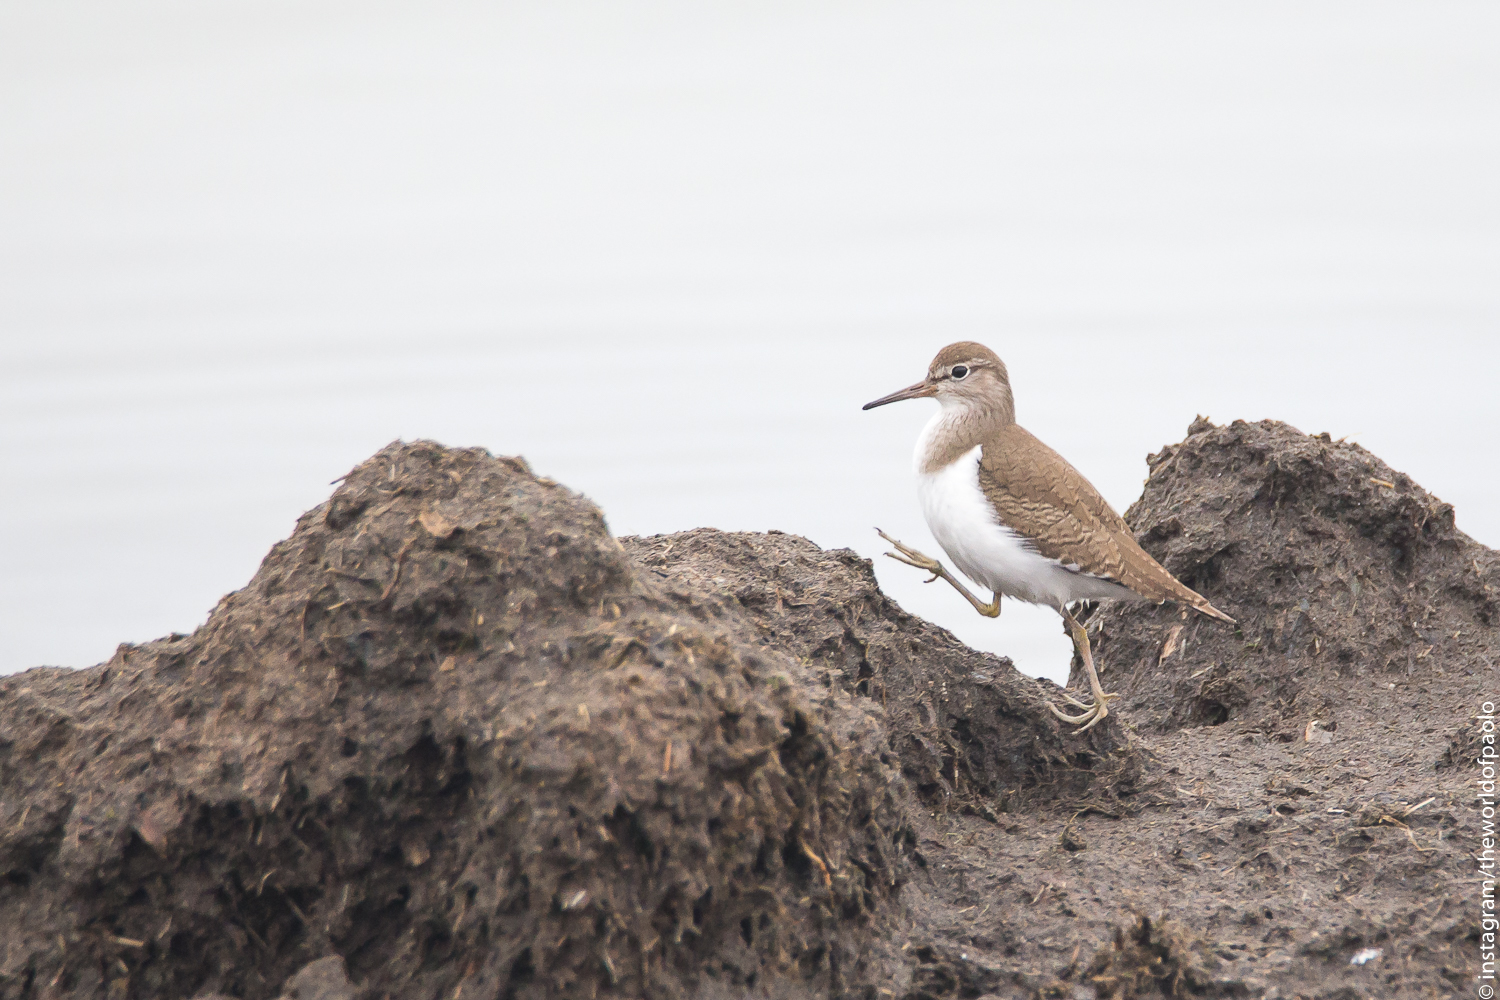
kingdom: Animalia
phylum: Chordata
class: Aves
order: Charadriiformes
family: Scolopacidae
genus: Actitis
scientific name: Actitis hypoleucos
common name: Common sandpiper
